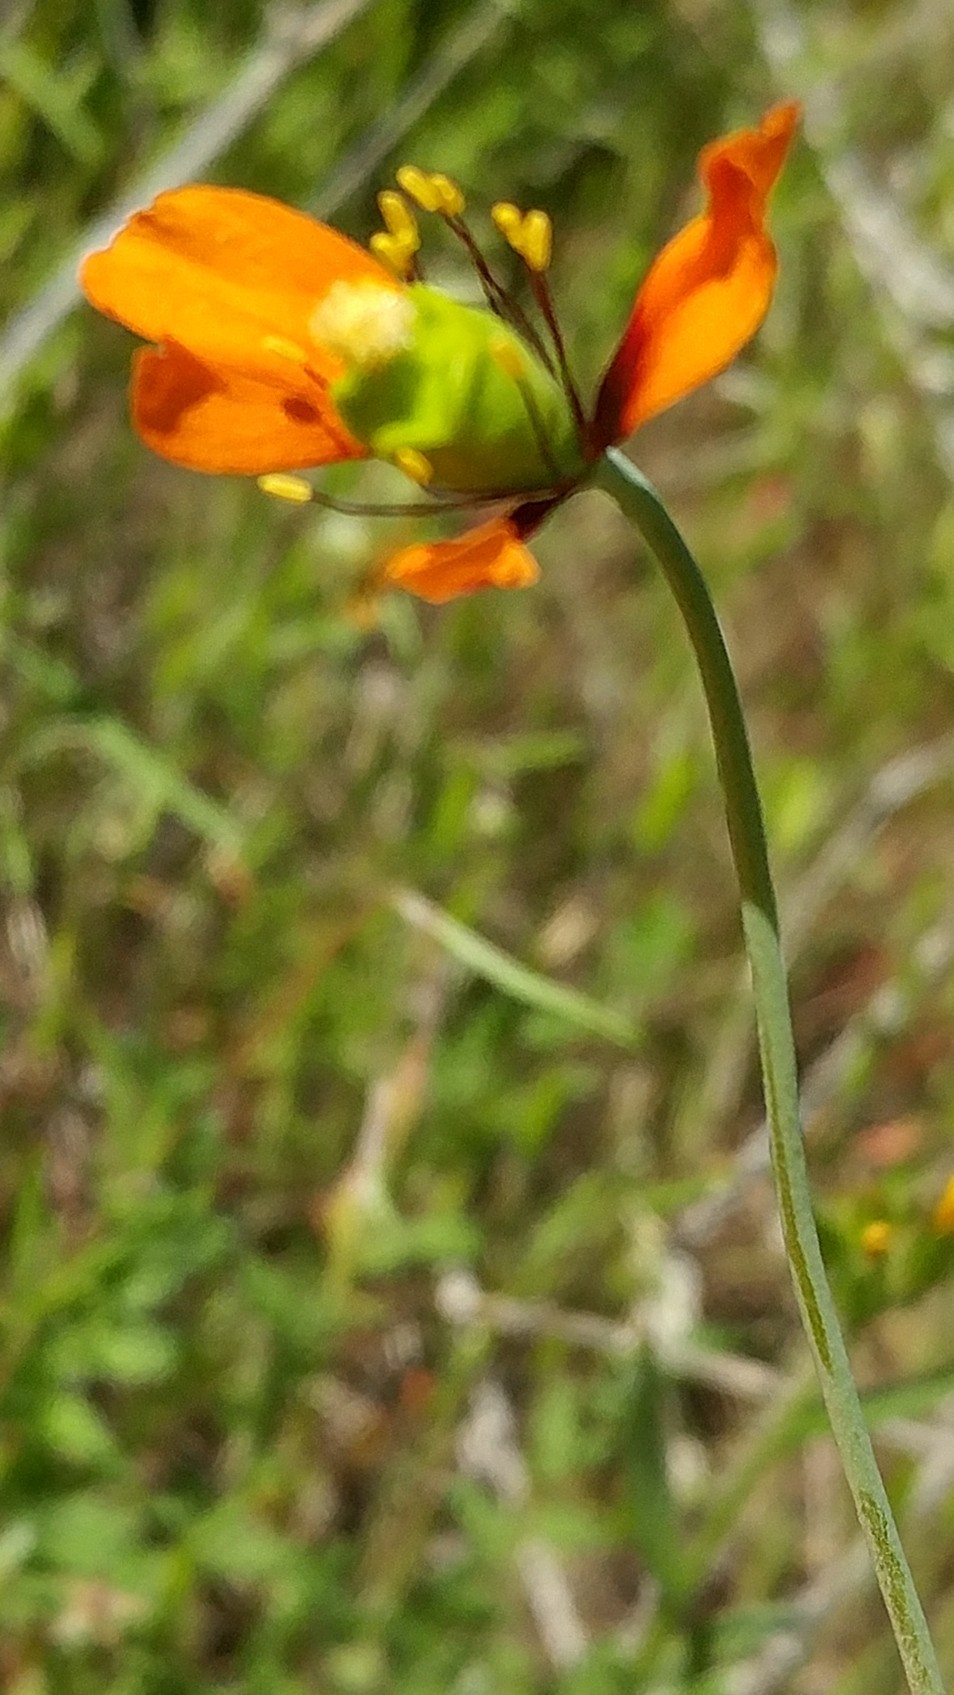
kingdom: Plantae
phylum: Tracheophyta
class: Magnoliopsida
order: Ranunculales
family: Papaveraceae
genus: Stylomecon
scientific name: Stylomecon heterophylla
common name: Flaming-poppy
